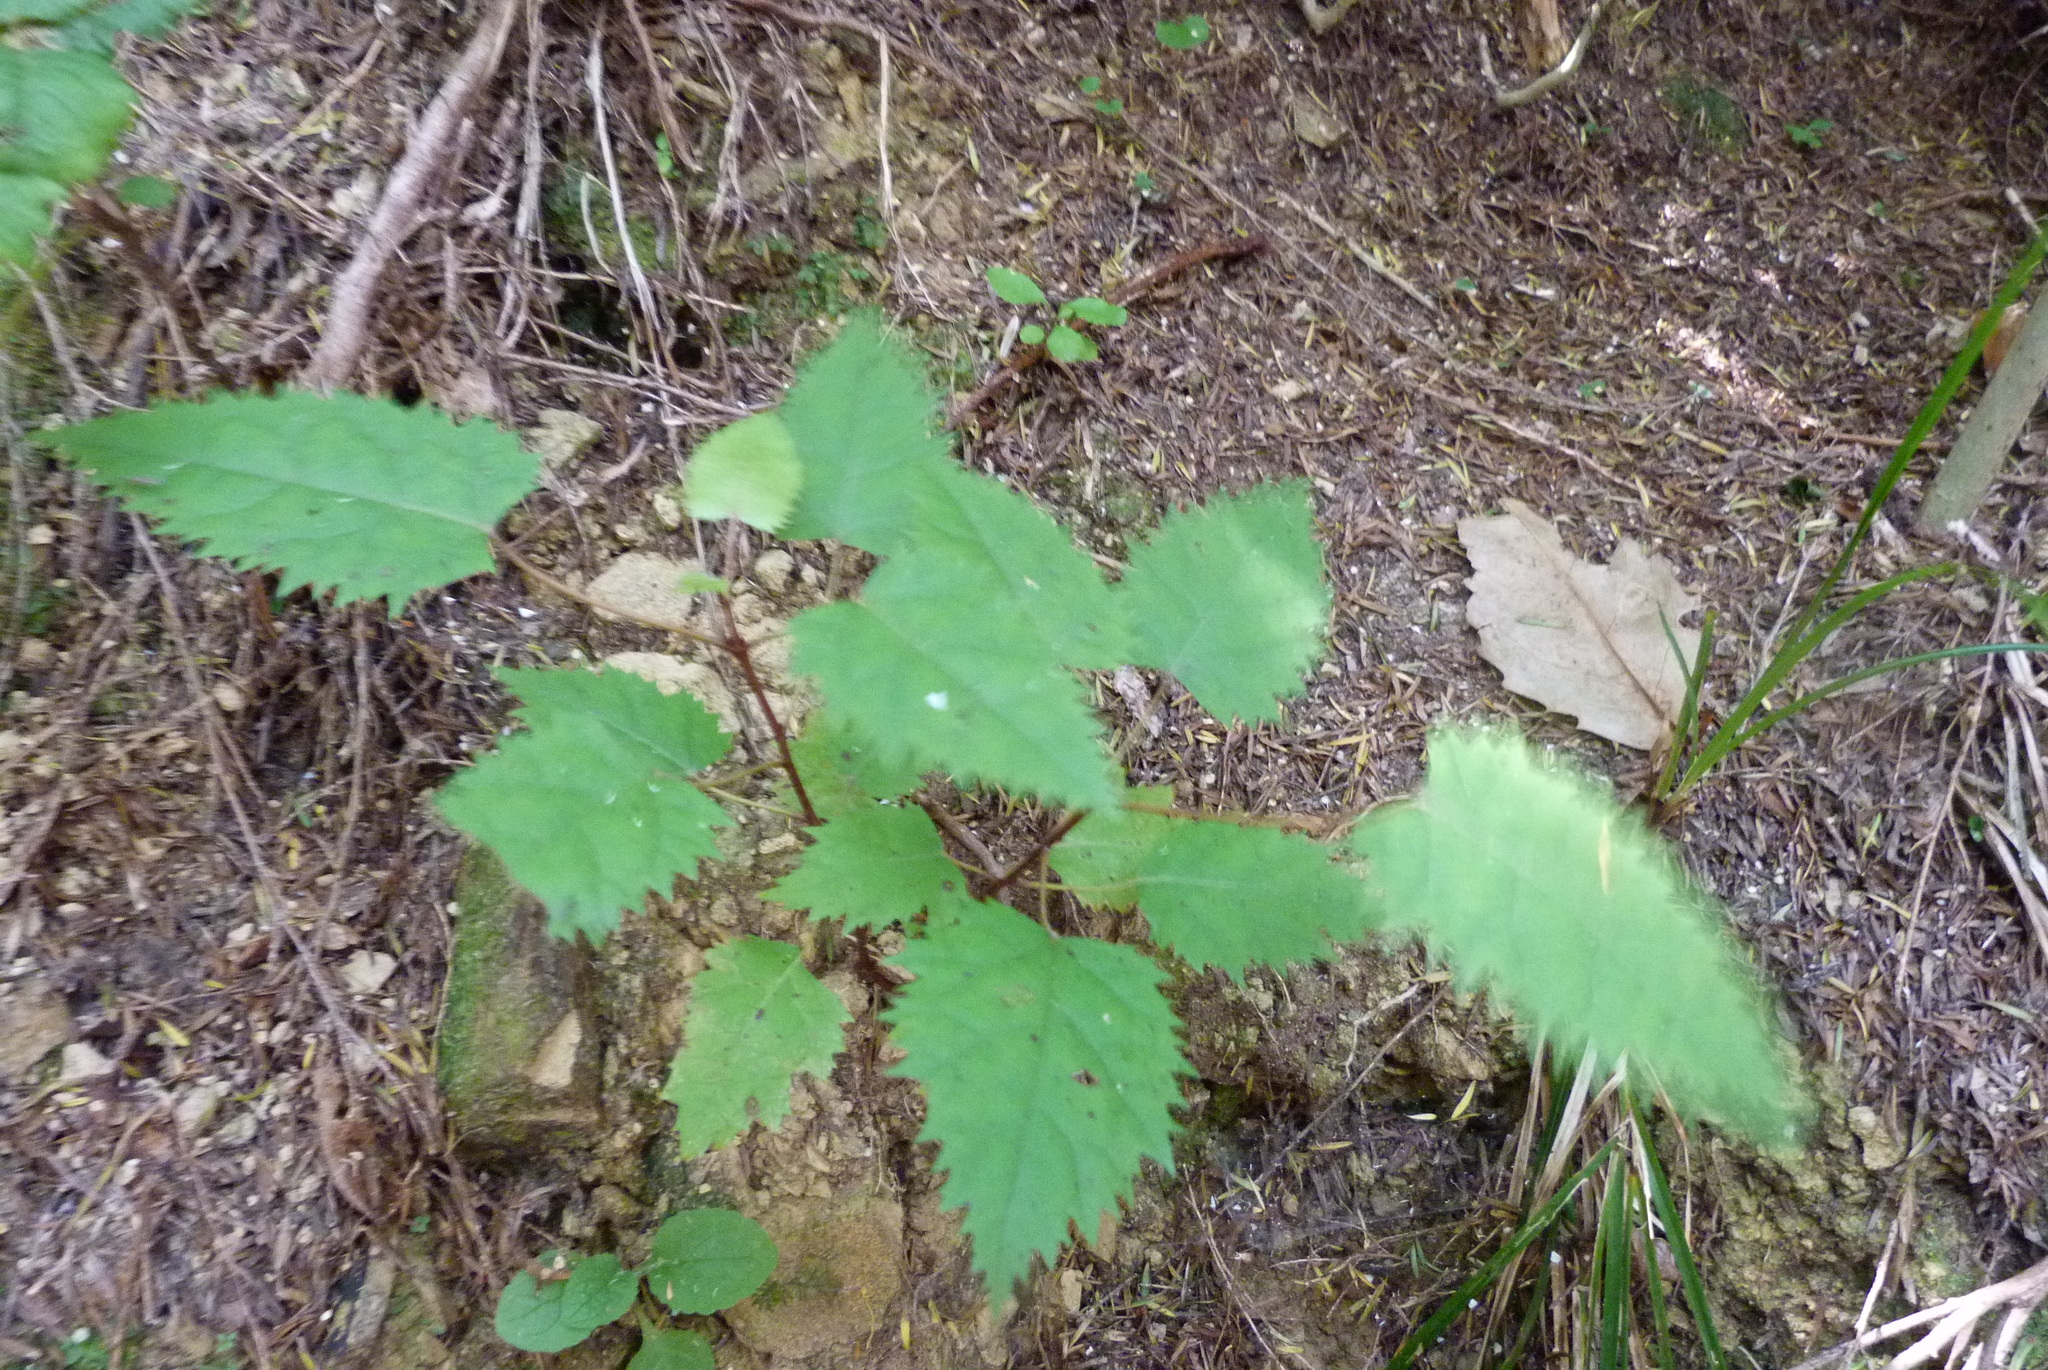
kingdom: Plantae
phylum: Tracheophyta
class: Magnoliopsida
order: Oxalidales
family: Elaeocarpaceae
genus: Aristotelia
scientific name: Aristotelia serrata
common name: New zealand wineberry
